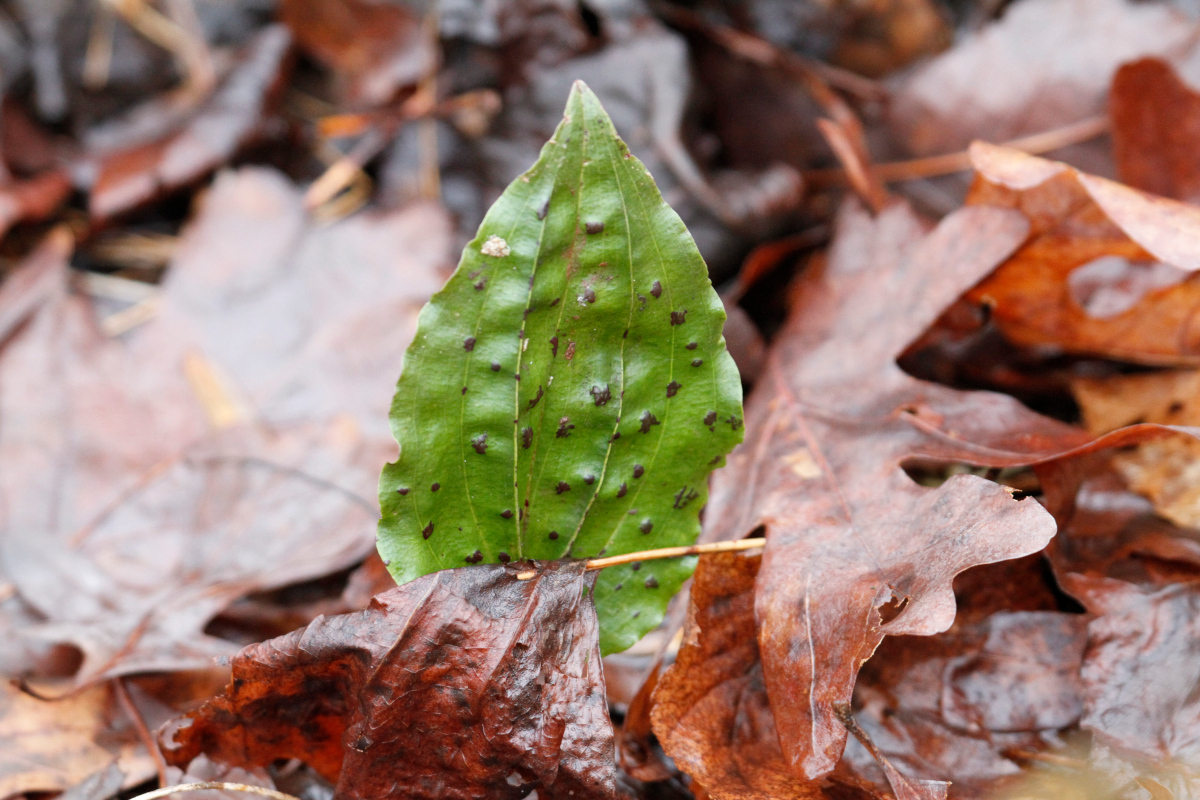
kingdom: Plantae
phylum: Tracheophyta
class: Liliopsida
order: Asparagales
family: Orchidaceae
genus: Tipularia
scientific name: Tipularia discolor
